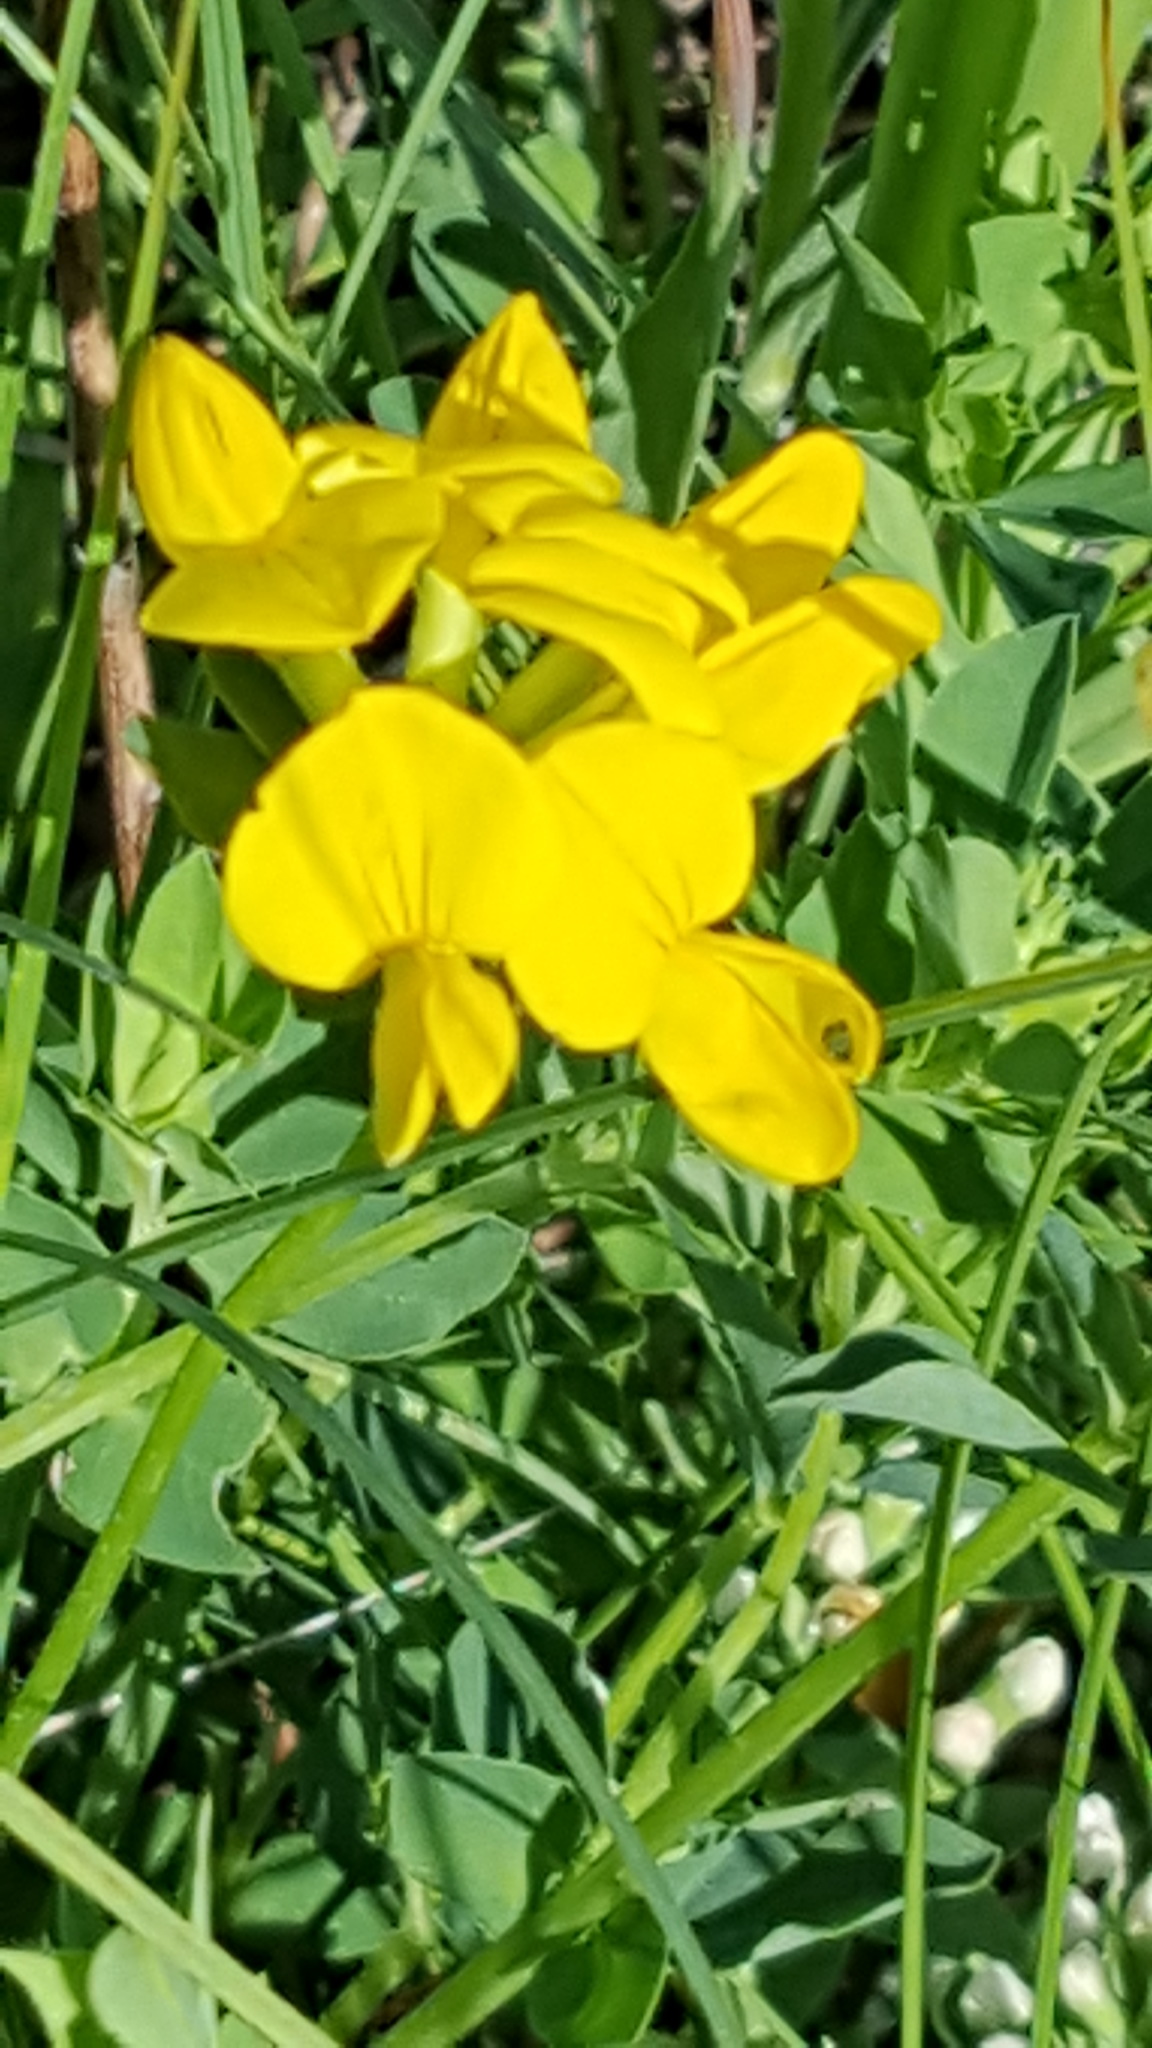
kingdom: Plantae
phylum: Tracheophyta
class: Magnoliopsida
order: Fabales
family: Fabaceae
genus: Lotus
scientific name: Lotus corniculatus
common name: Common bird's-foot-trefoil
